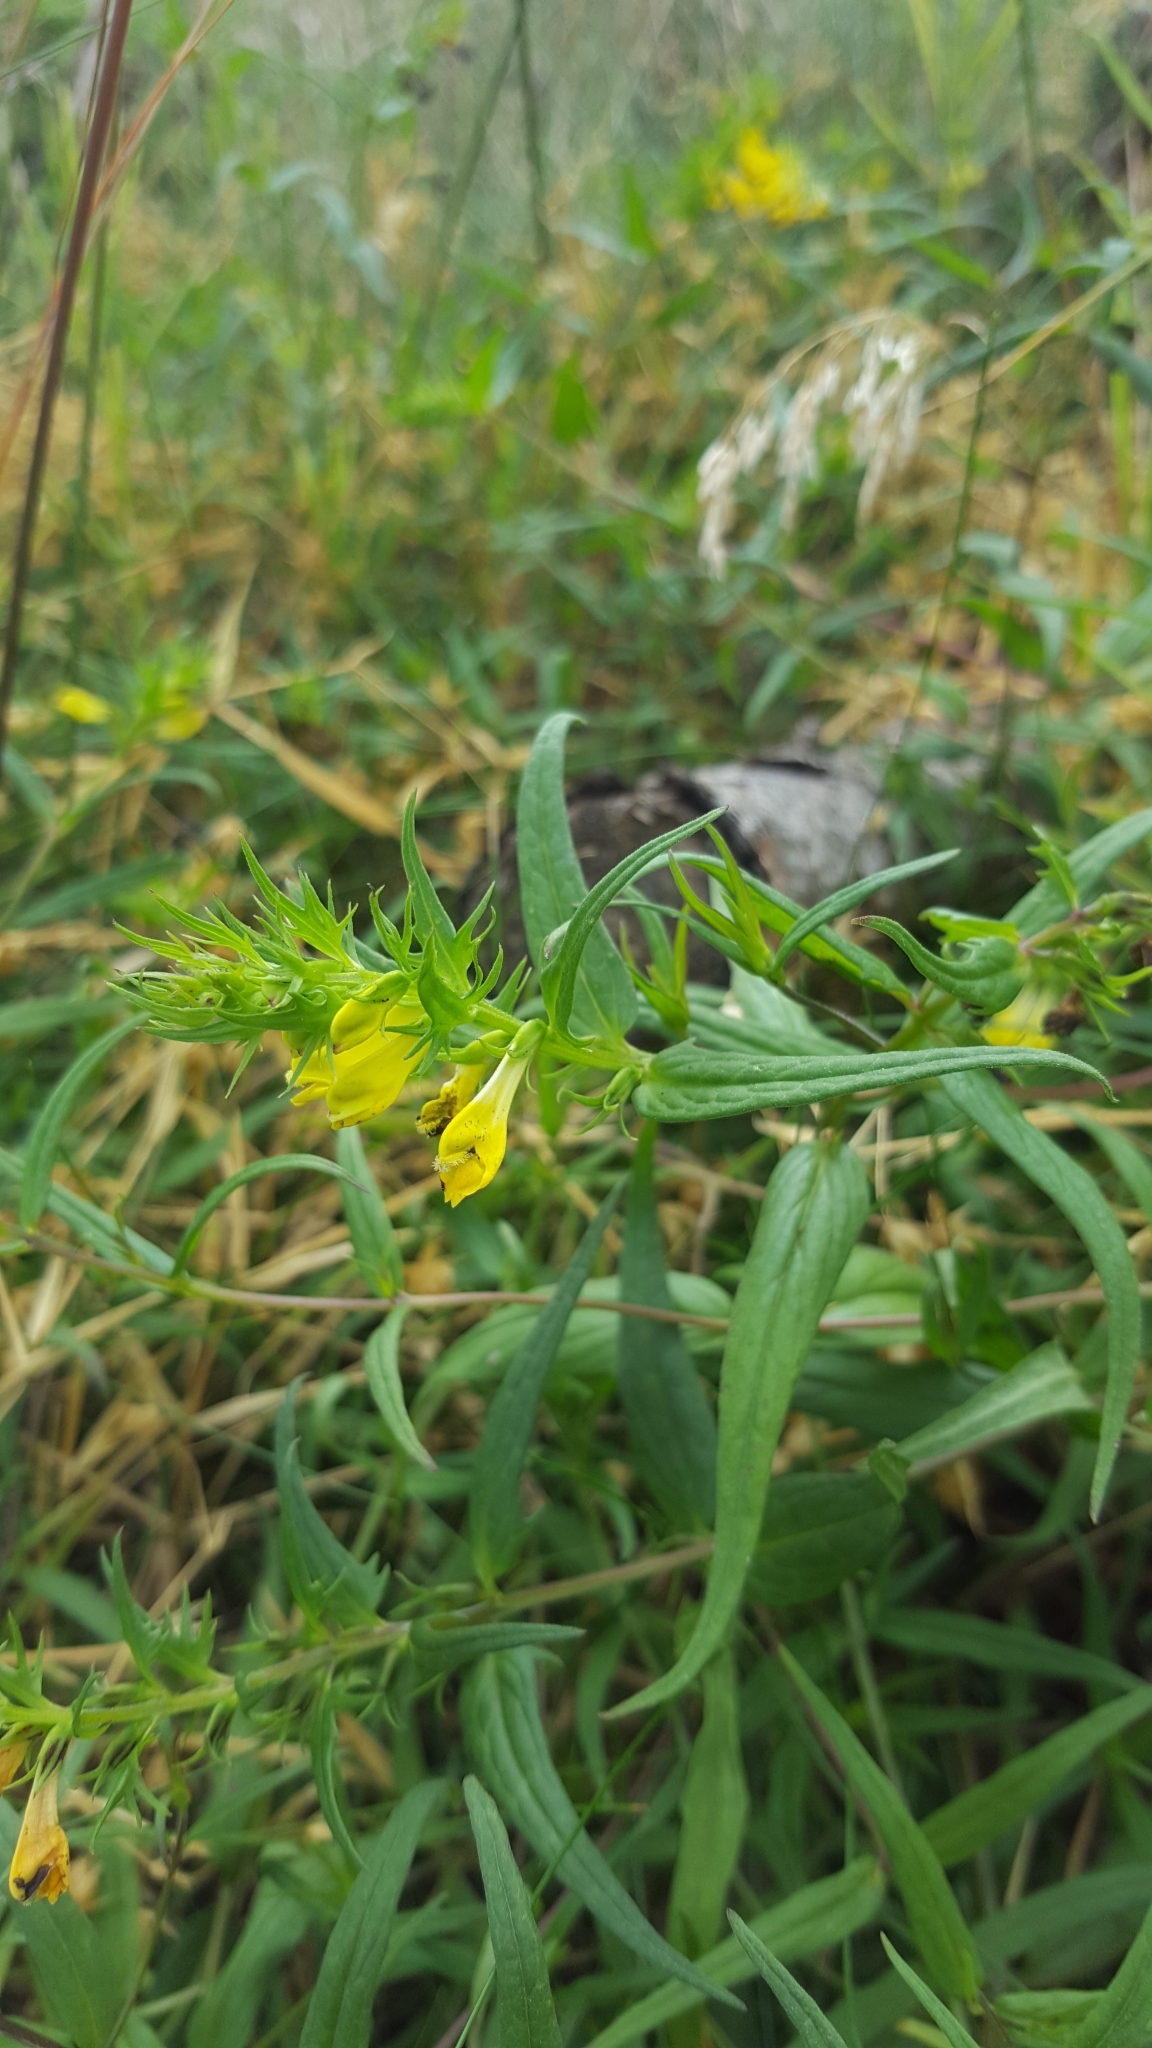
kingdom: Plantae
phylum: Tracheophyta
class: Magnoliopsida
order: Lamiales
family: Orobanchaceae
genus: Melampyrum
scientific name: Melampyrum pratense
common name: Common cow-wheat
